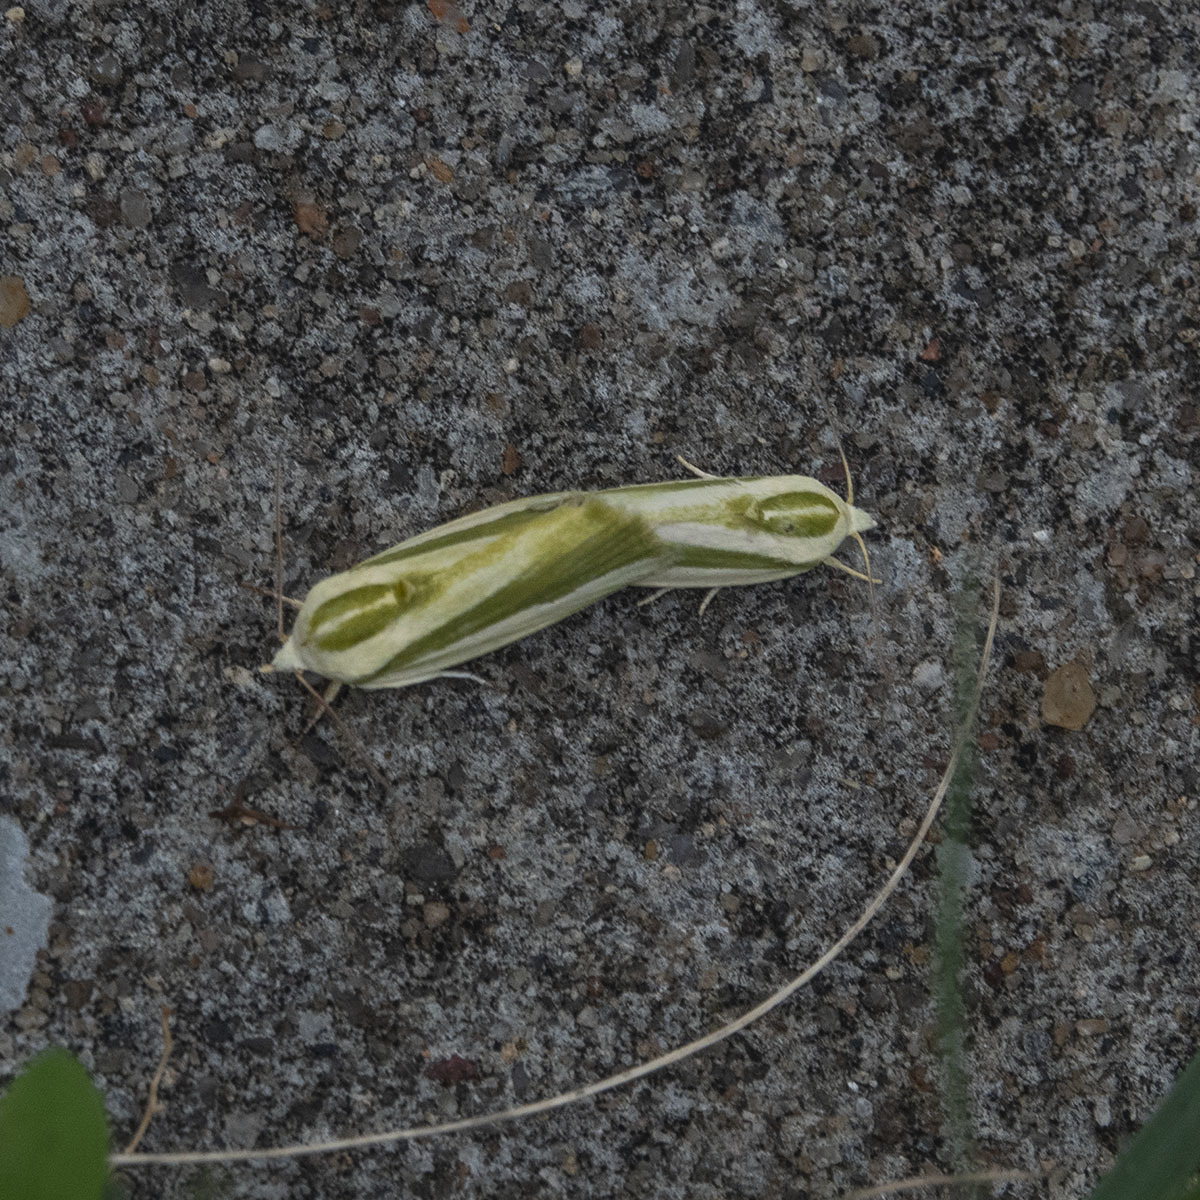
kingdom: Animalia
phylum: Arthropoda
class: Insecta
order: Lepidoptera
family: Nolidae
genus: Earias
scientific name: Earias vittella
